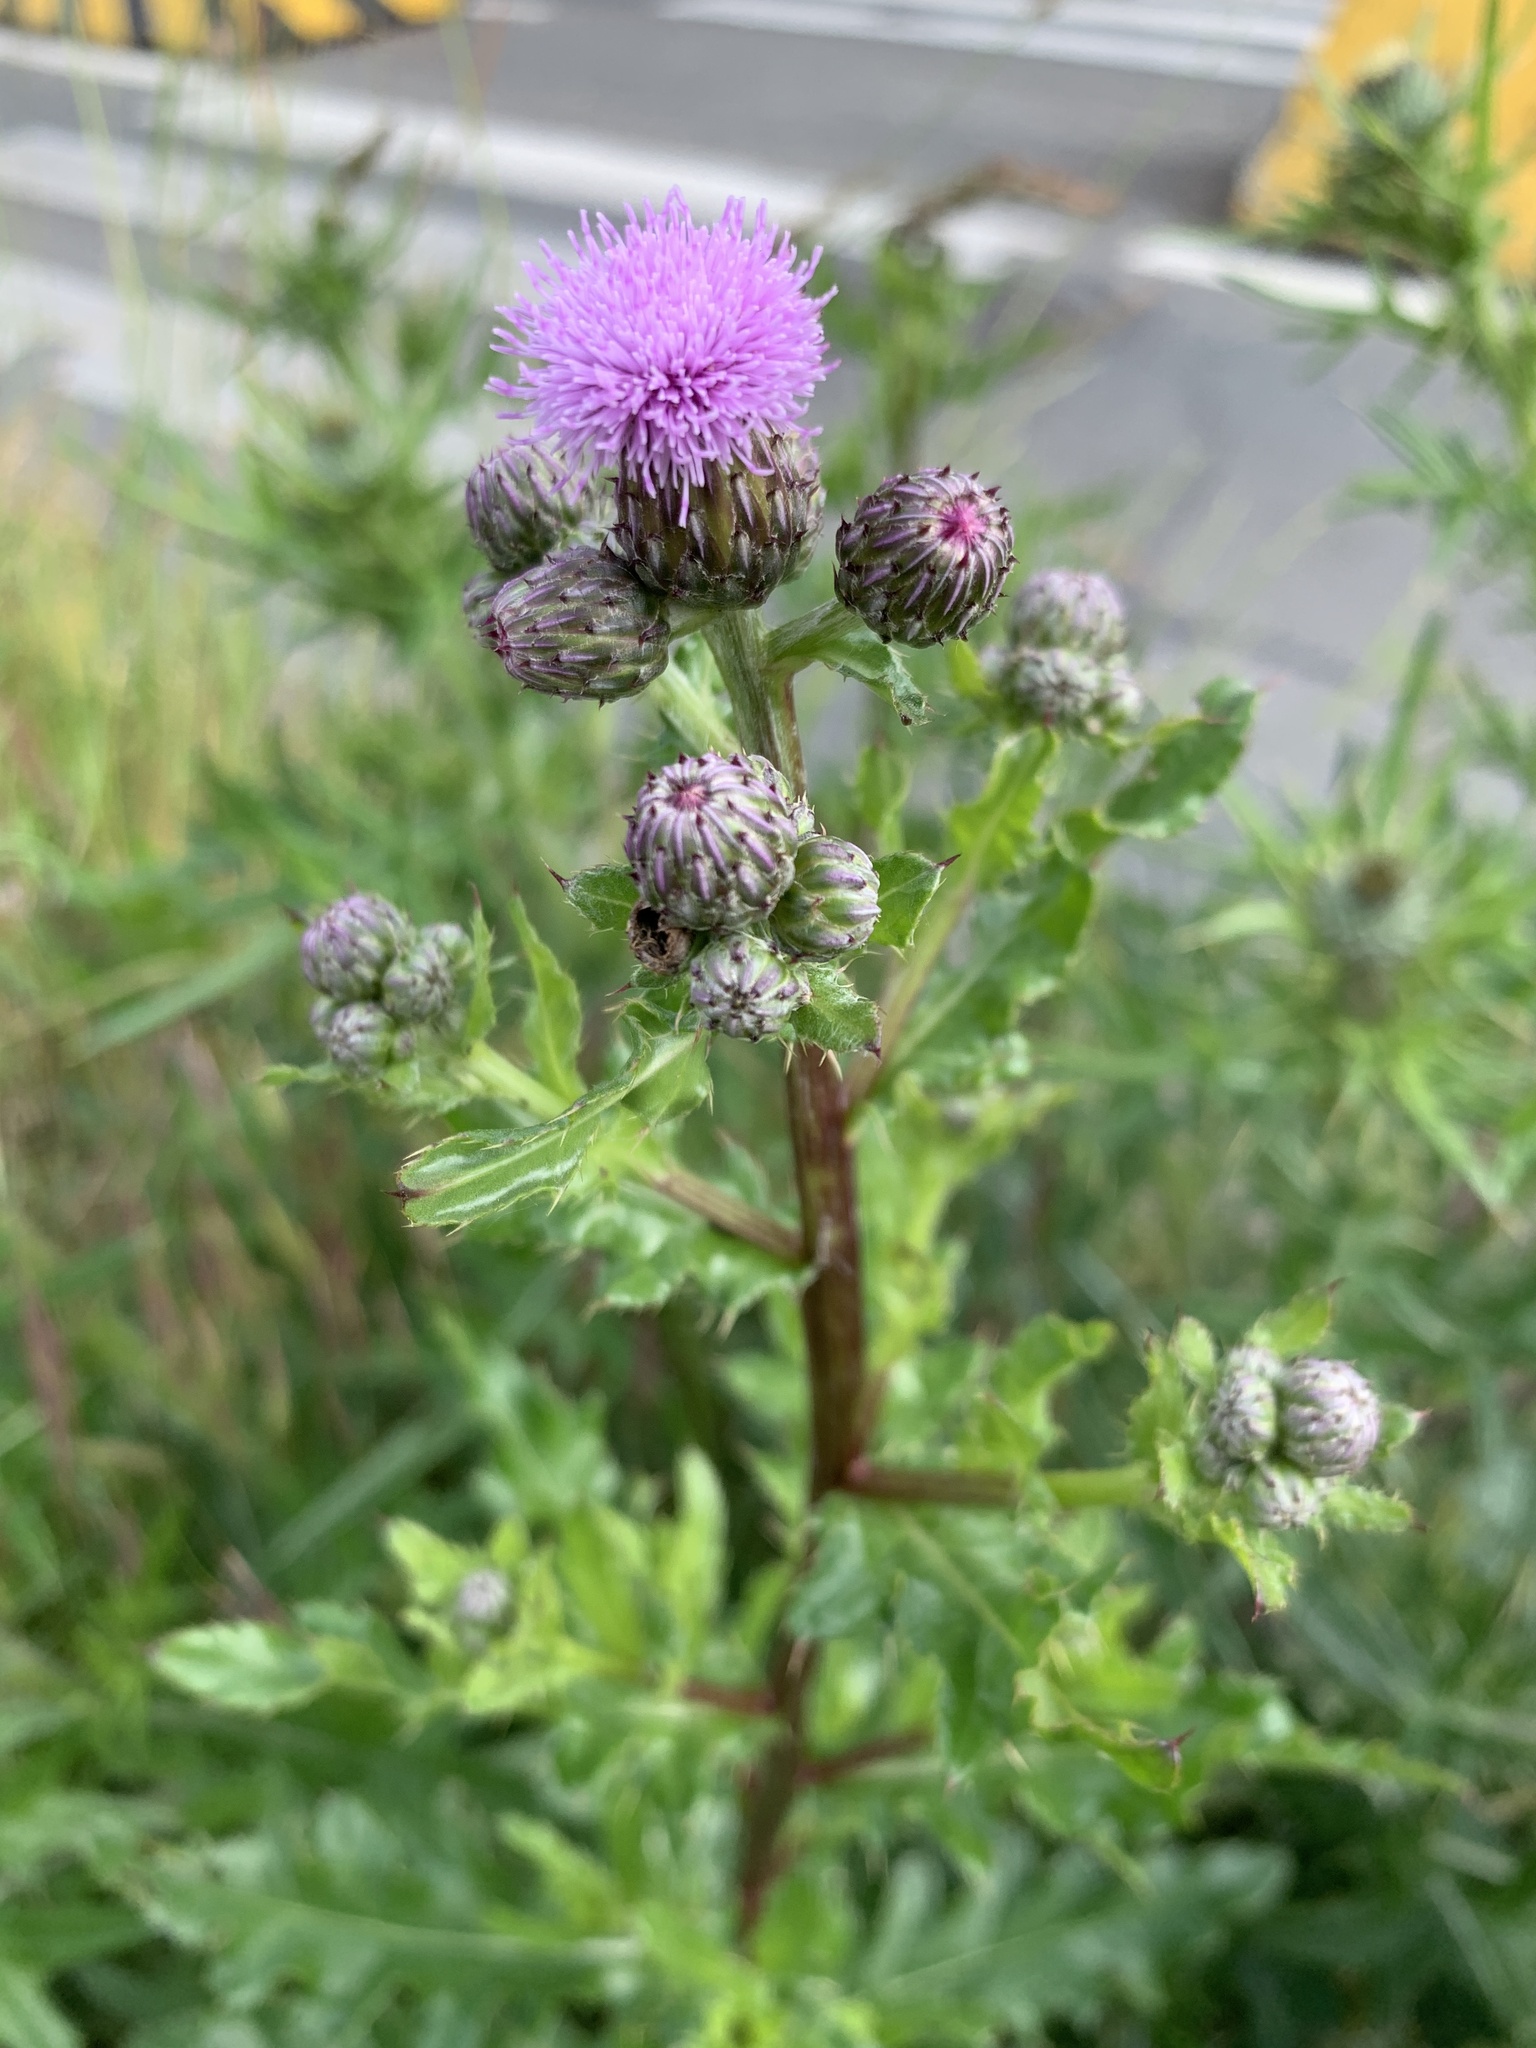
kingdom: Plantae
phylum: Tracheophyta
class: Magnoliopsida
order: Asterales
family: Asteraceae
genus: Cirsium
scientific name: Cirsium arvense
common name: Creeping thistle
